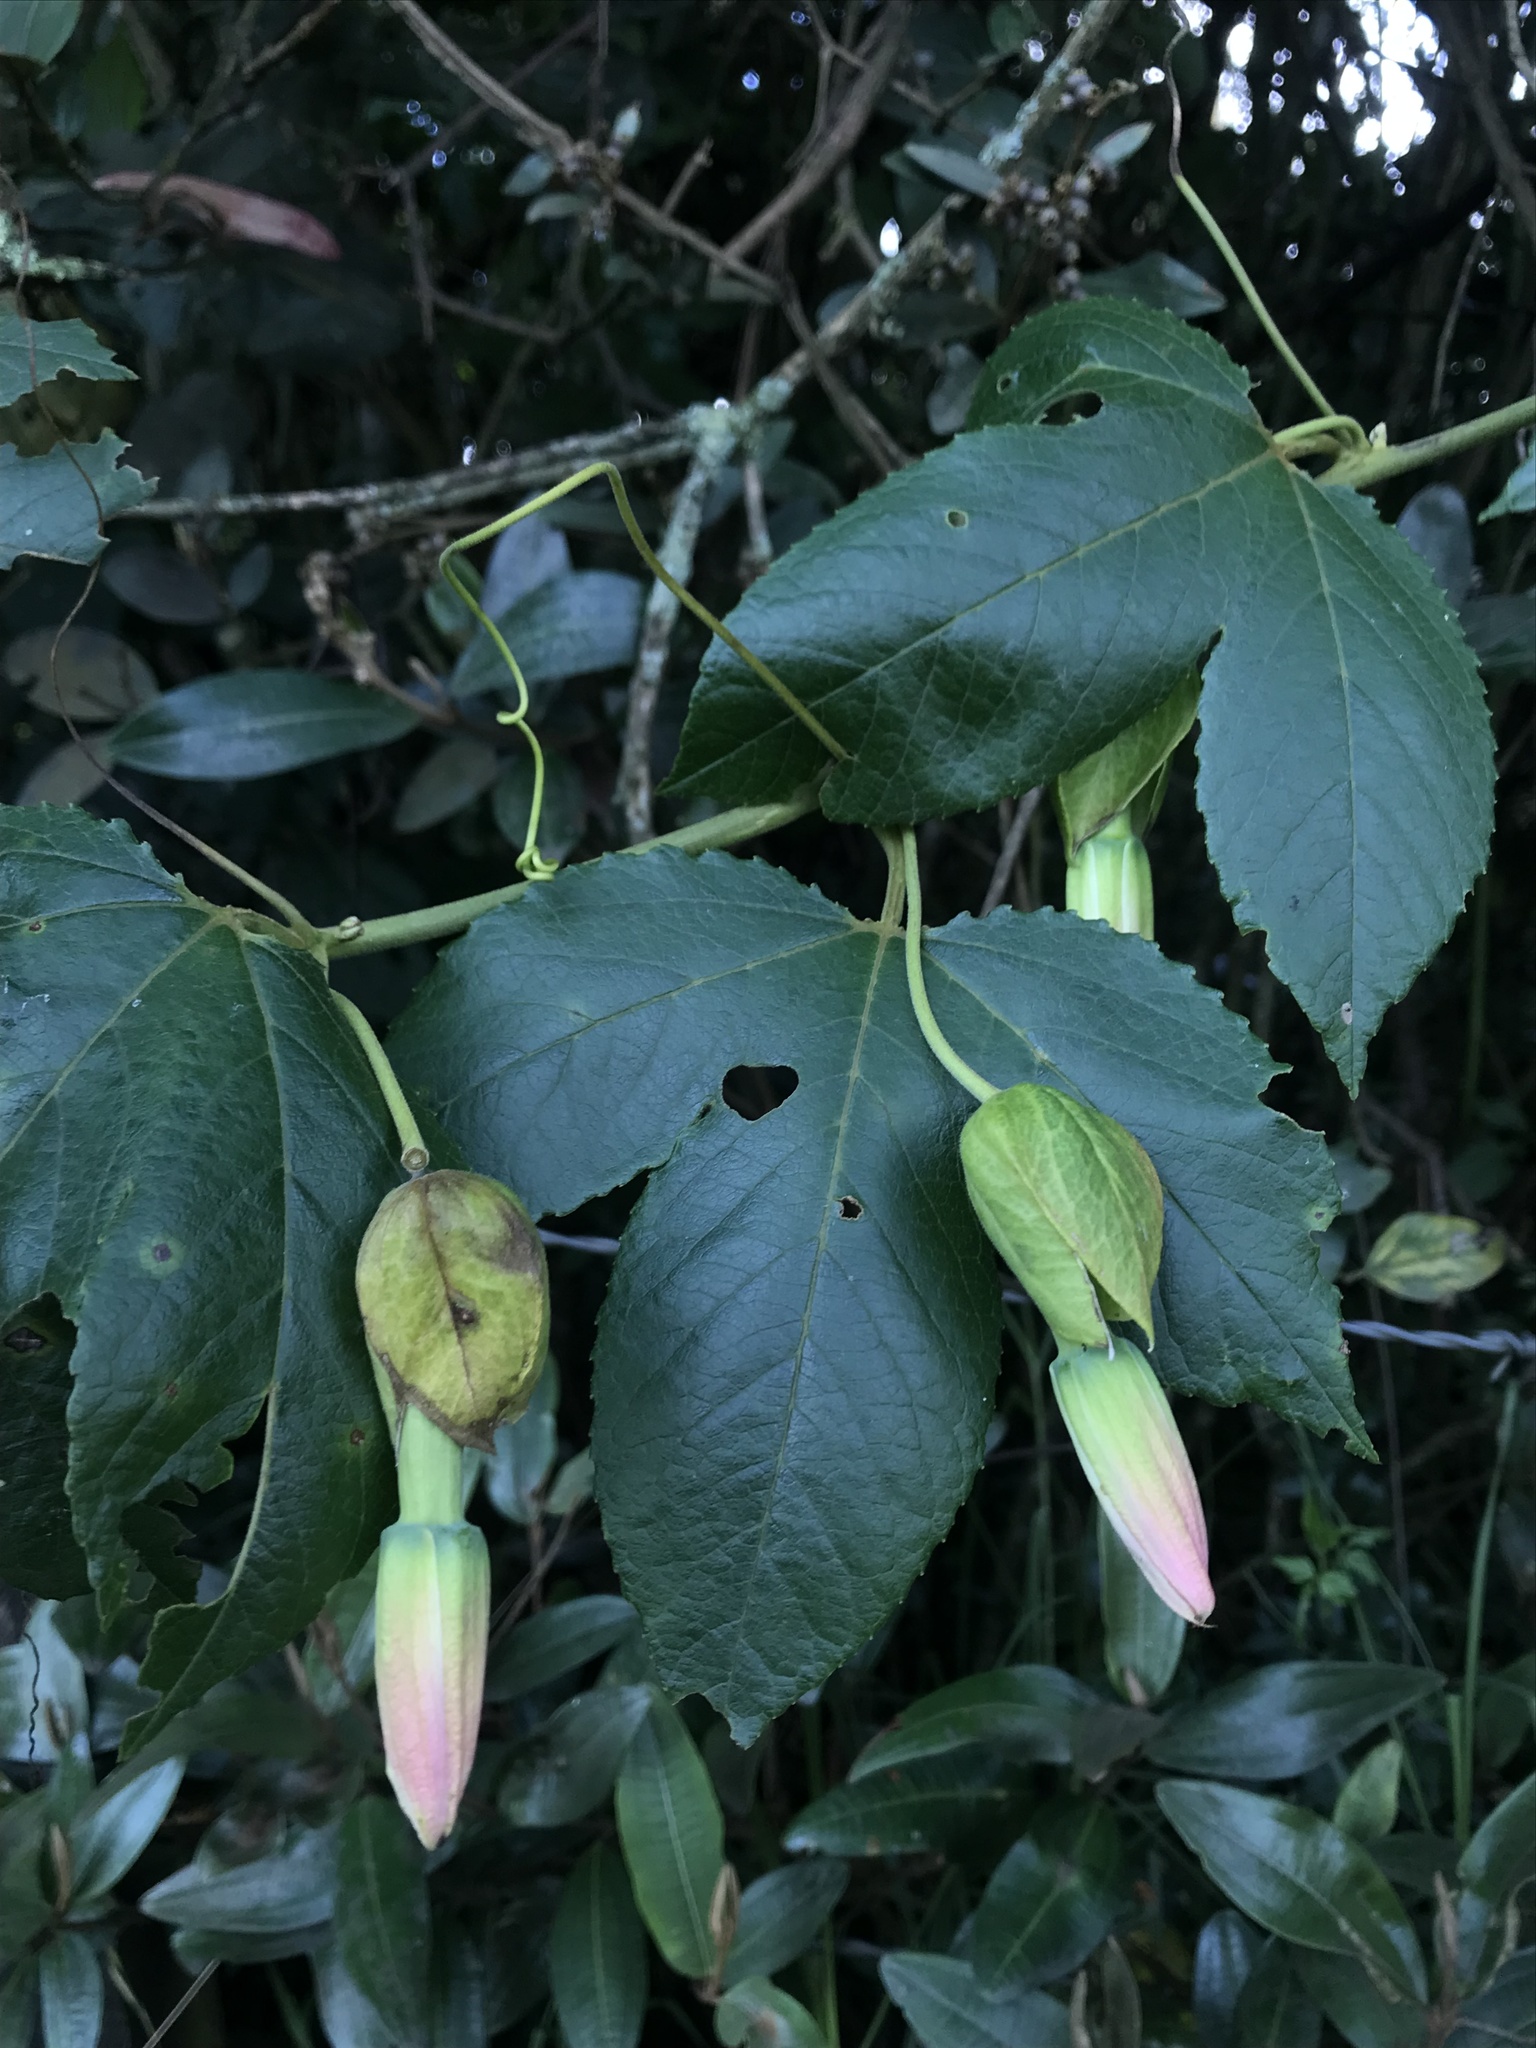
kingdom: Plantae
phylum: Tracheophyta
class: Magnoliopsida
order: Malpighiales
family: Passifloraceae
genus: Passiflora
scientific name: Passiflora tarminiana
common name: Banana poka
